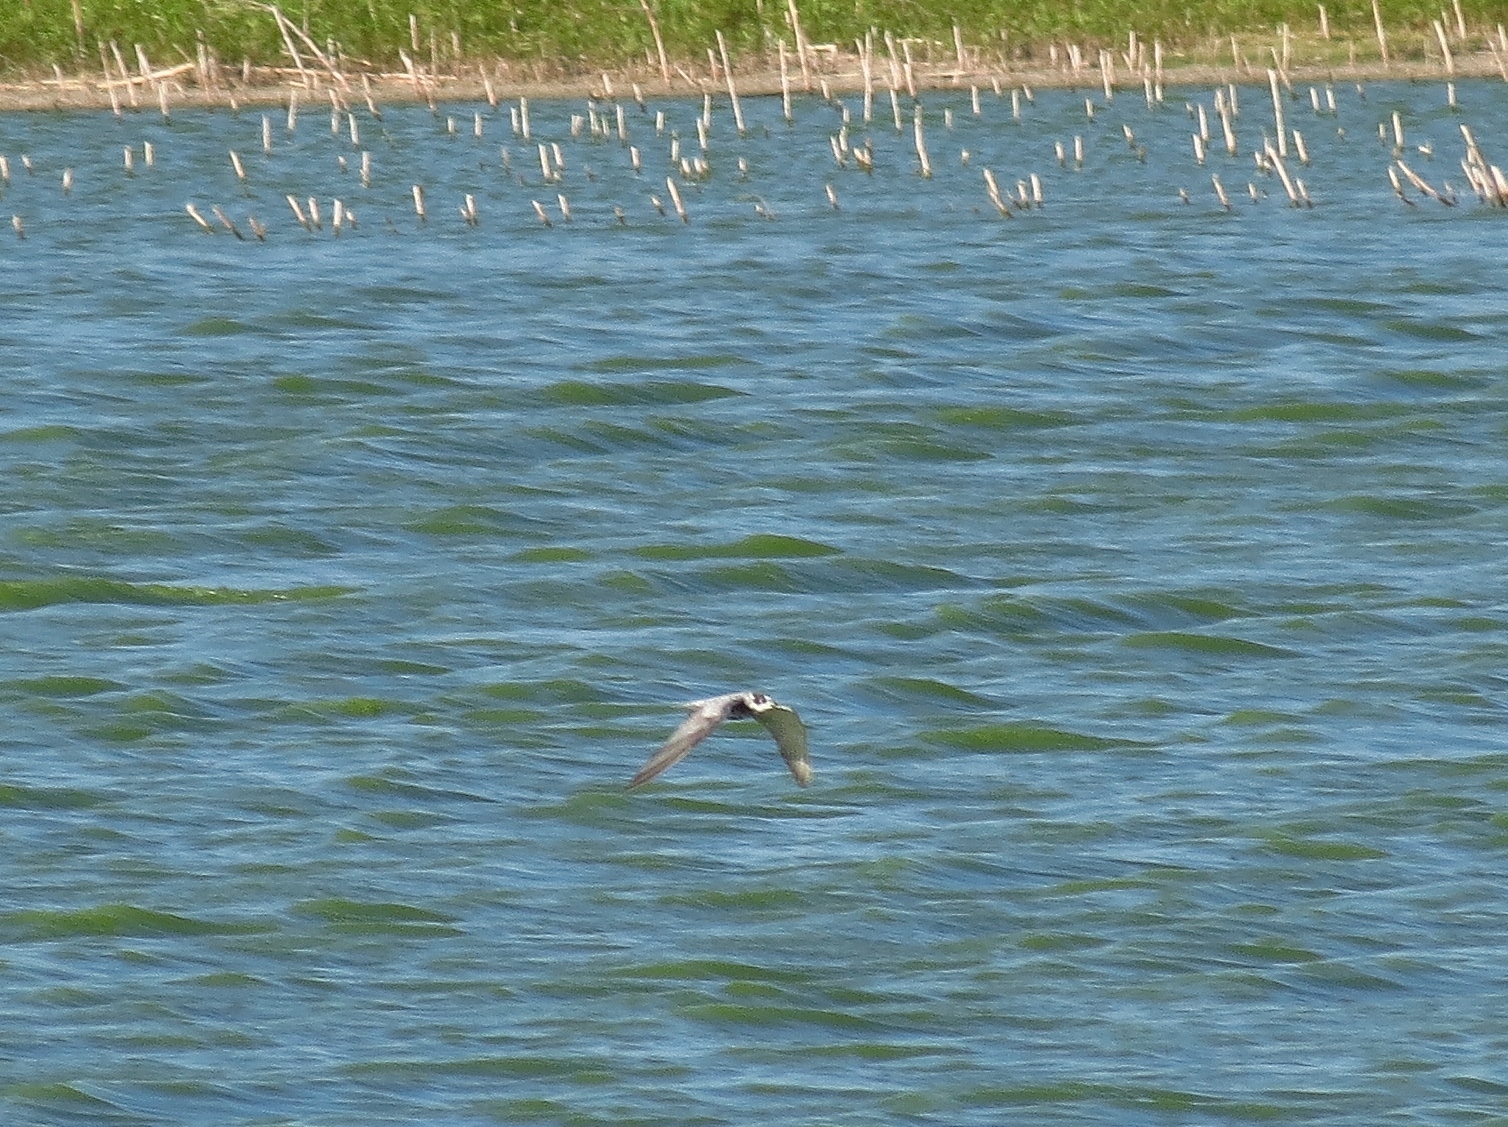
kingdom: Animalia
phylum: Chordata
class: Aves
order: Charadriiformes
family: Laridae
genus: Chlidonias
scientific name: Chlidonias niger
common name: Black tern
